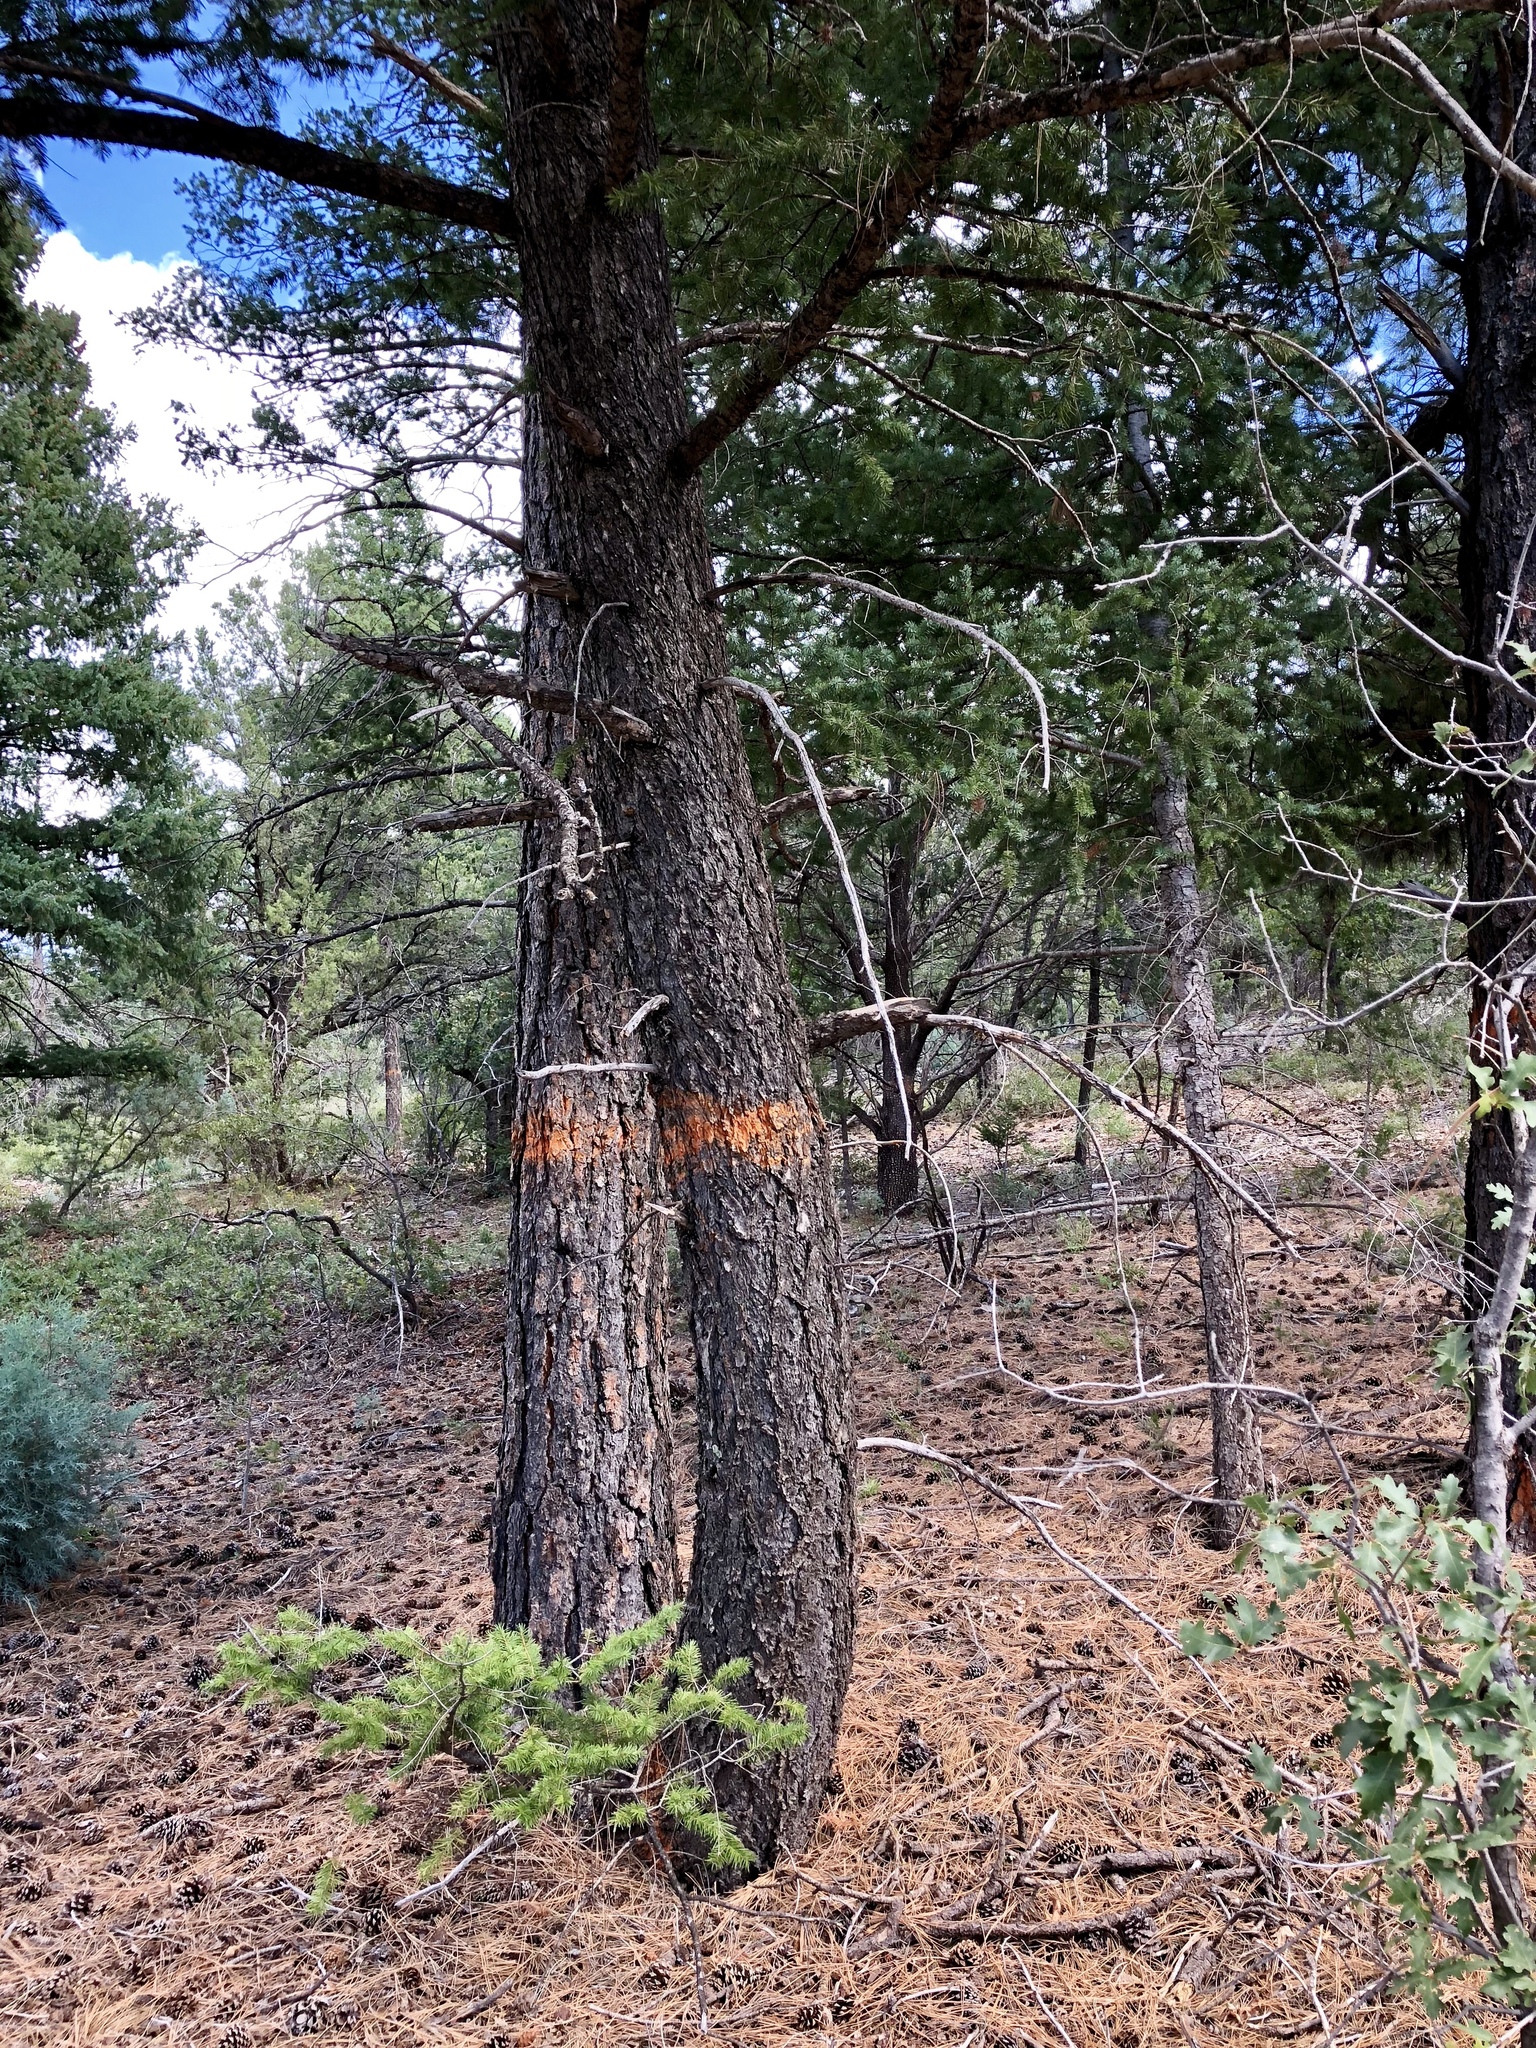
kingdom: Plantae
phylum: Tracheophyta
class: Pinopsida
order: Pinales
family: Pinaceae
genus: Pseudotsuga
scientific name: Pseudotsuga menziesii
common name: Douglas fir
